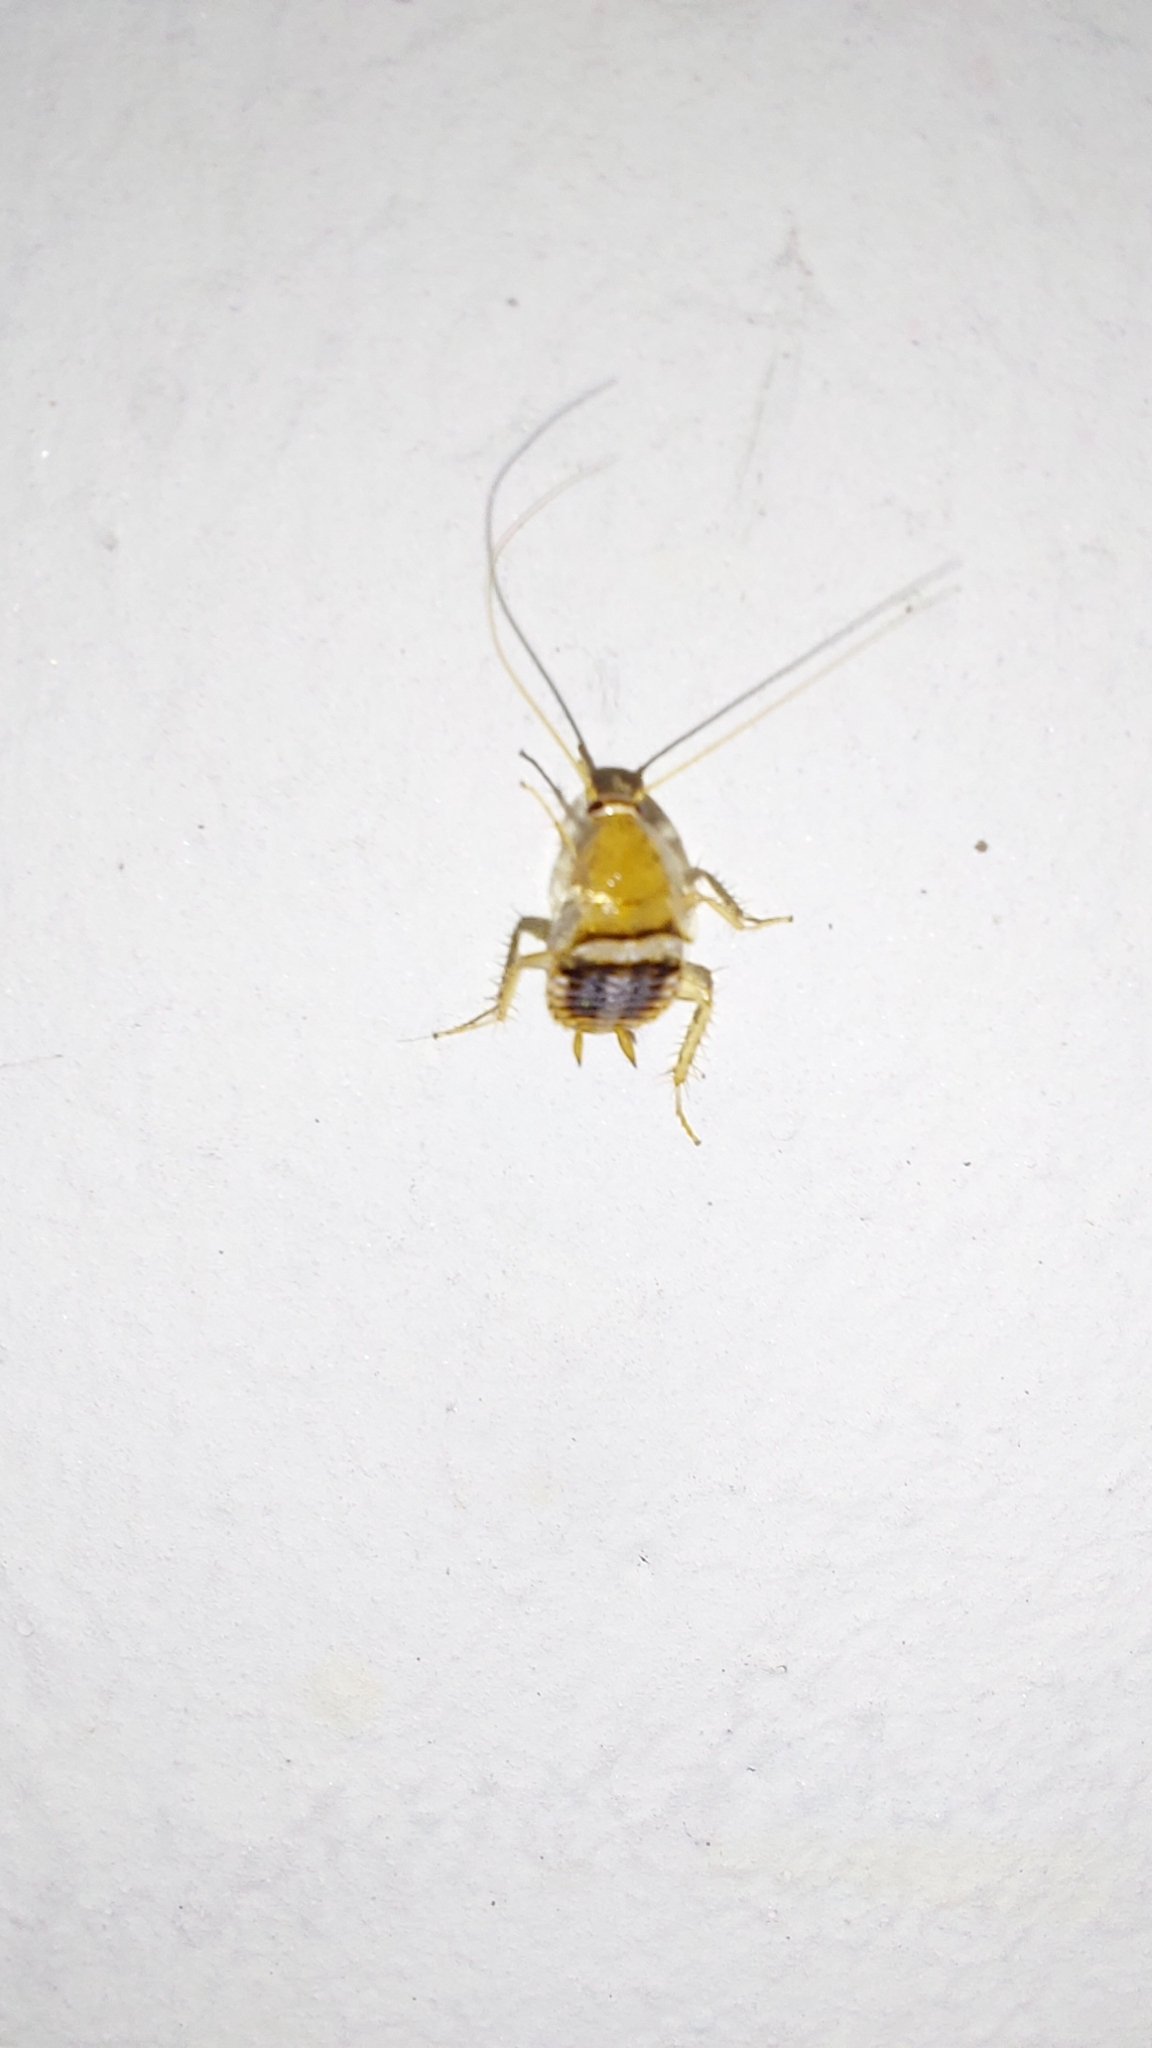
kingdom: Animalia
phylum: Arthropoda
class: Insecta
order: Blattodea
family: Ectobiidae
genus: Planuncus
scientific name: Planuncus tingitanus
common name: Variable cockroach
